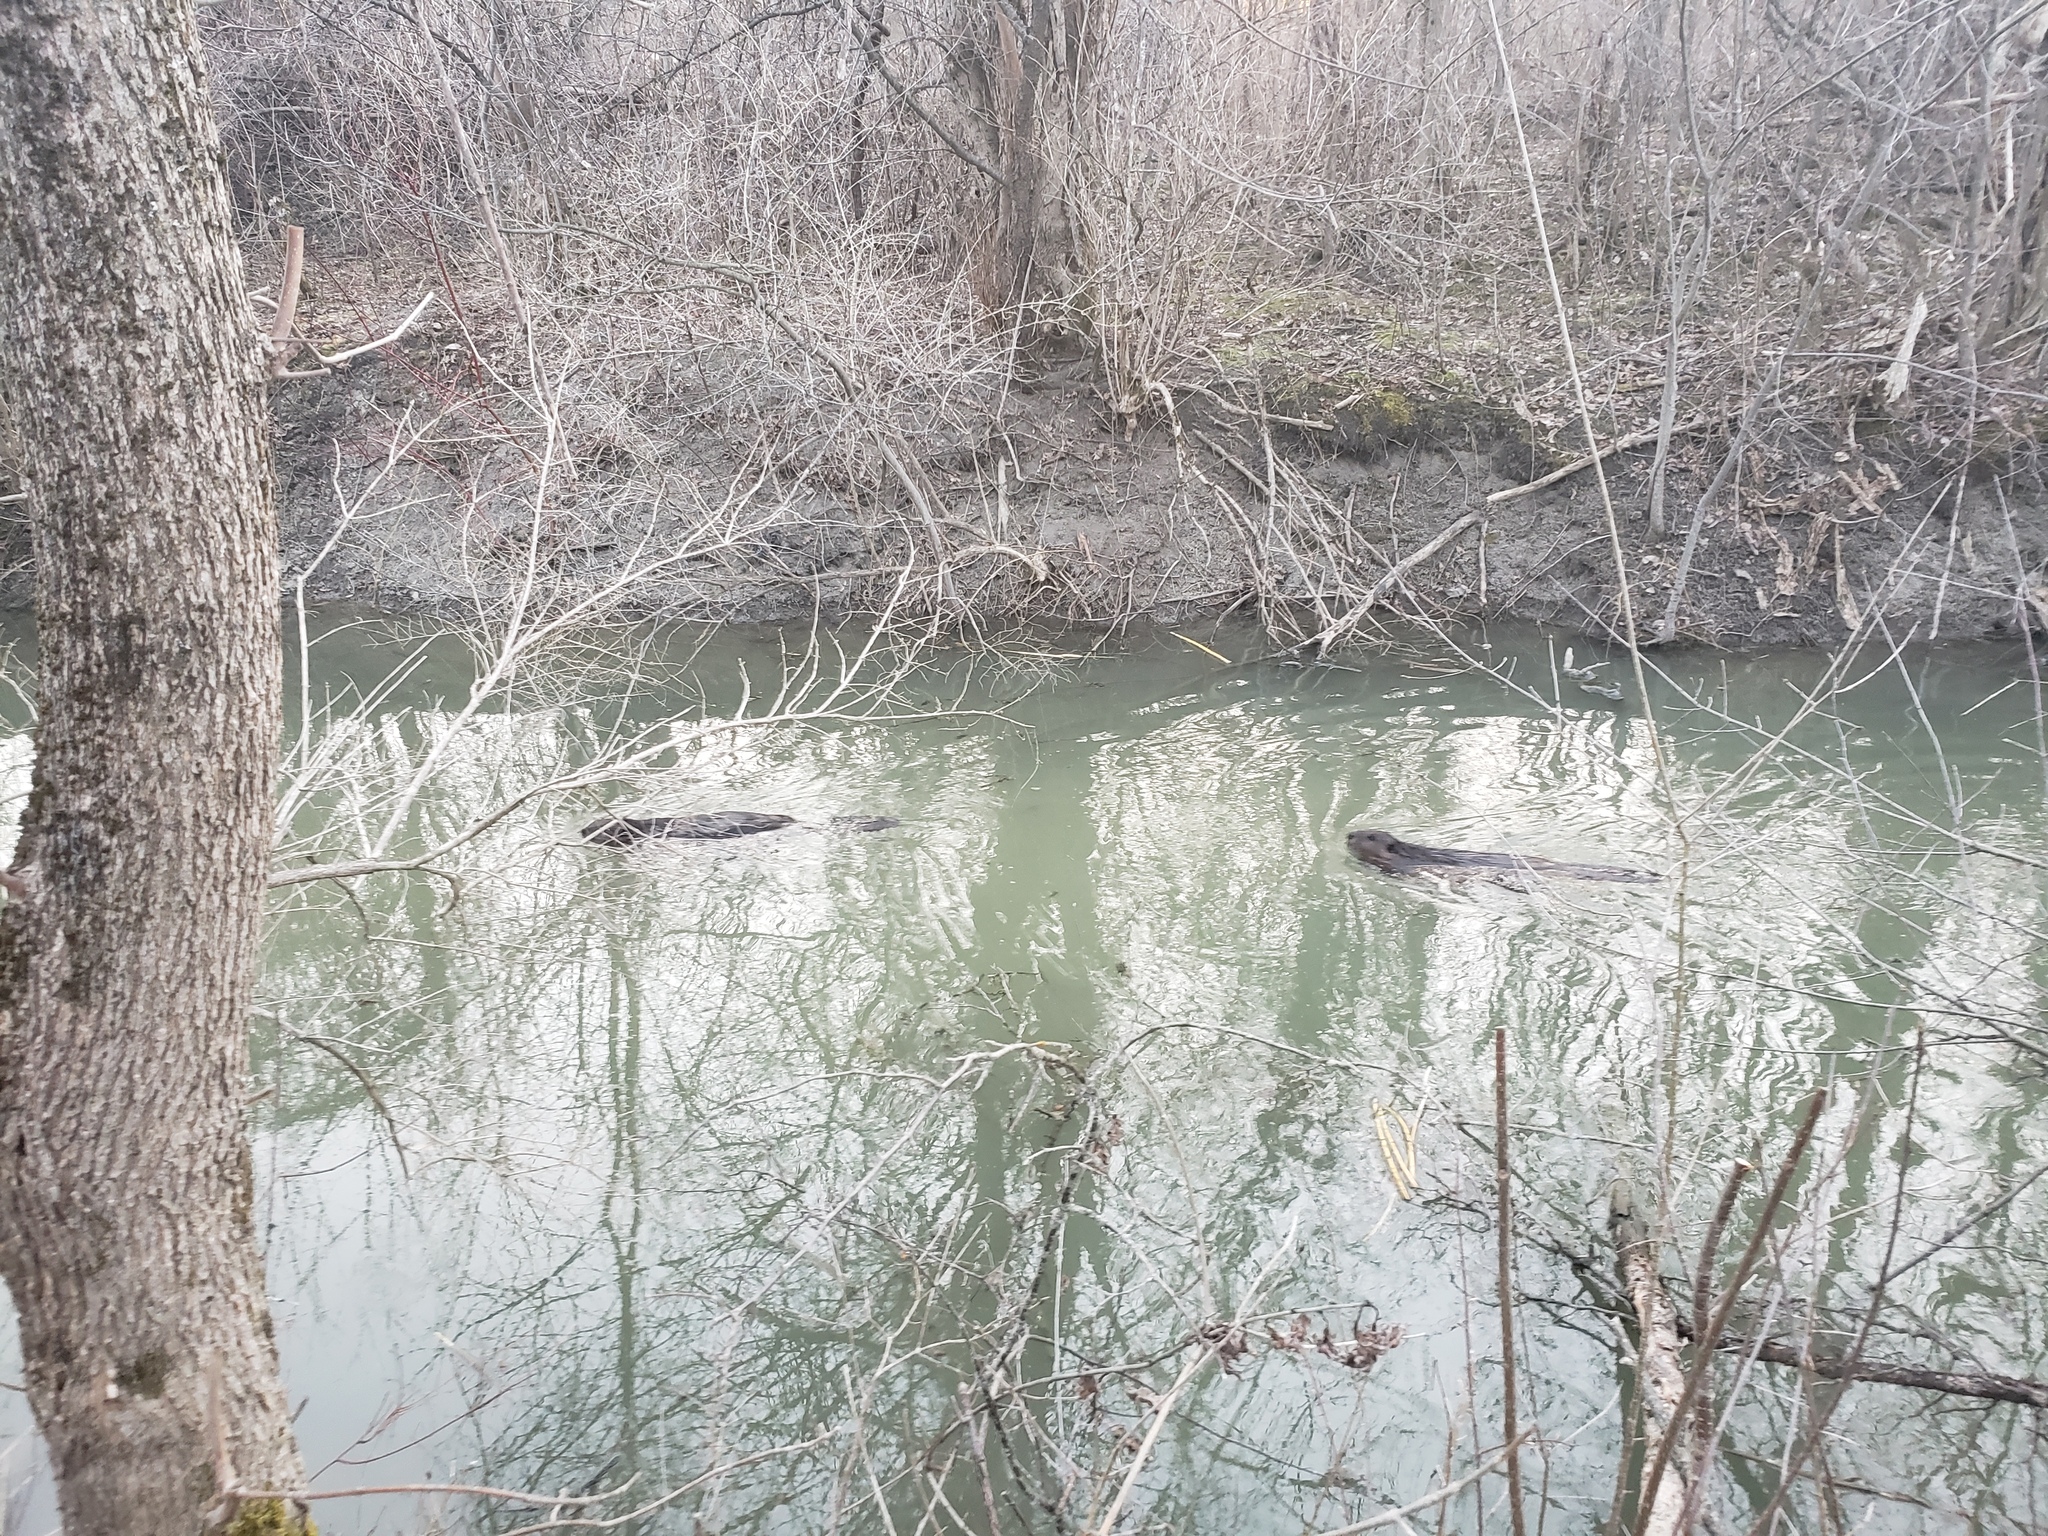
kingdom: Animalia
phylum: Chordata
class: Mammalia
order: Rodentia
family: Castoridae
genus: Castor
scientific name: Castor canadensis
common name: American beaver
